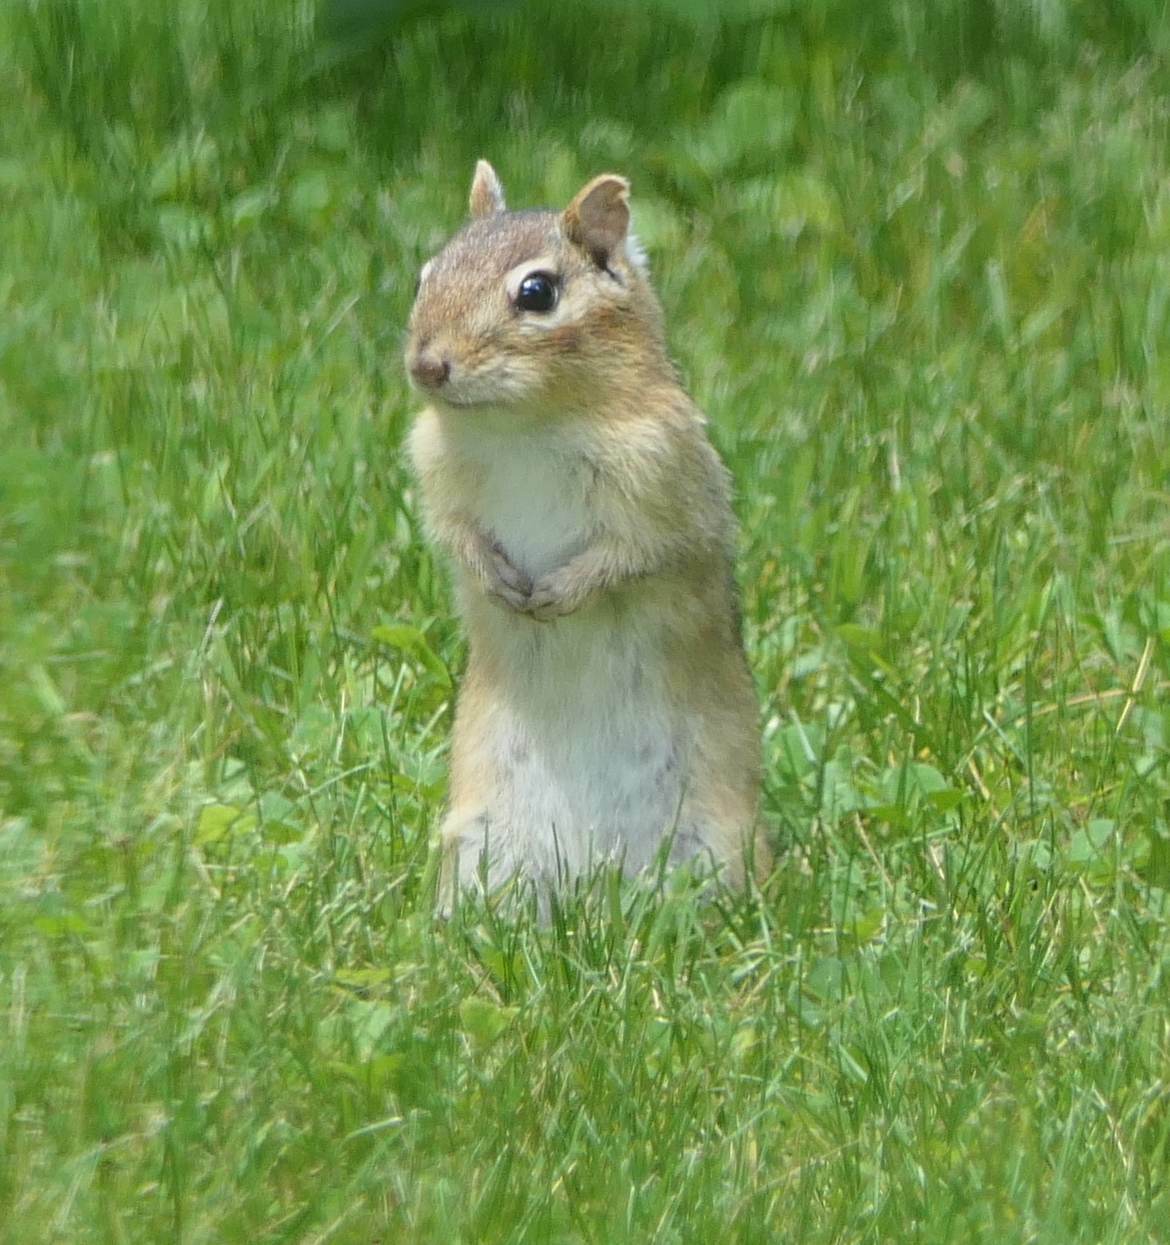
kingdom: Animalia
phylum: Chordata
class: Mammalia
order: Rodentia
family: Sciuridae
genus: Tamias
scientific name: Tamias striatus
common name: Eastern chipmunk
